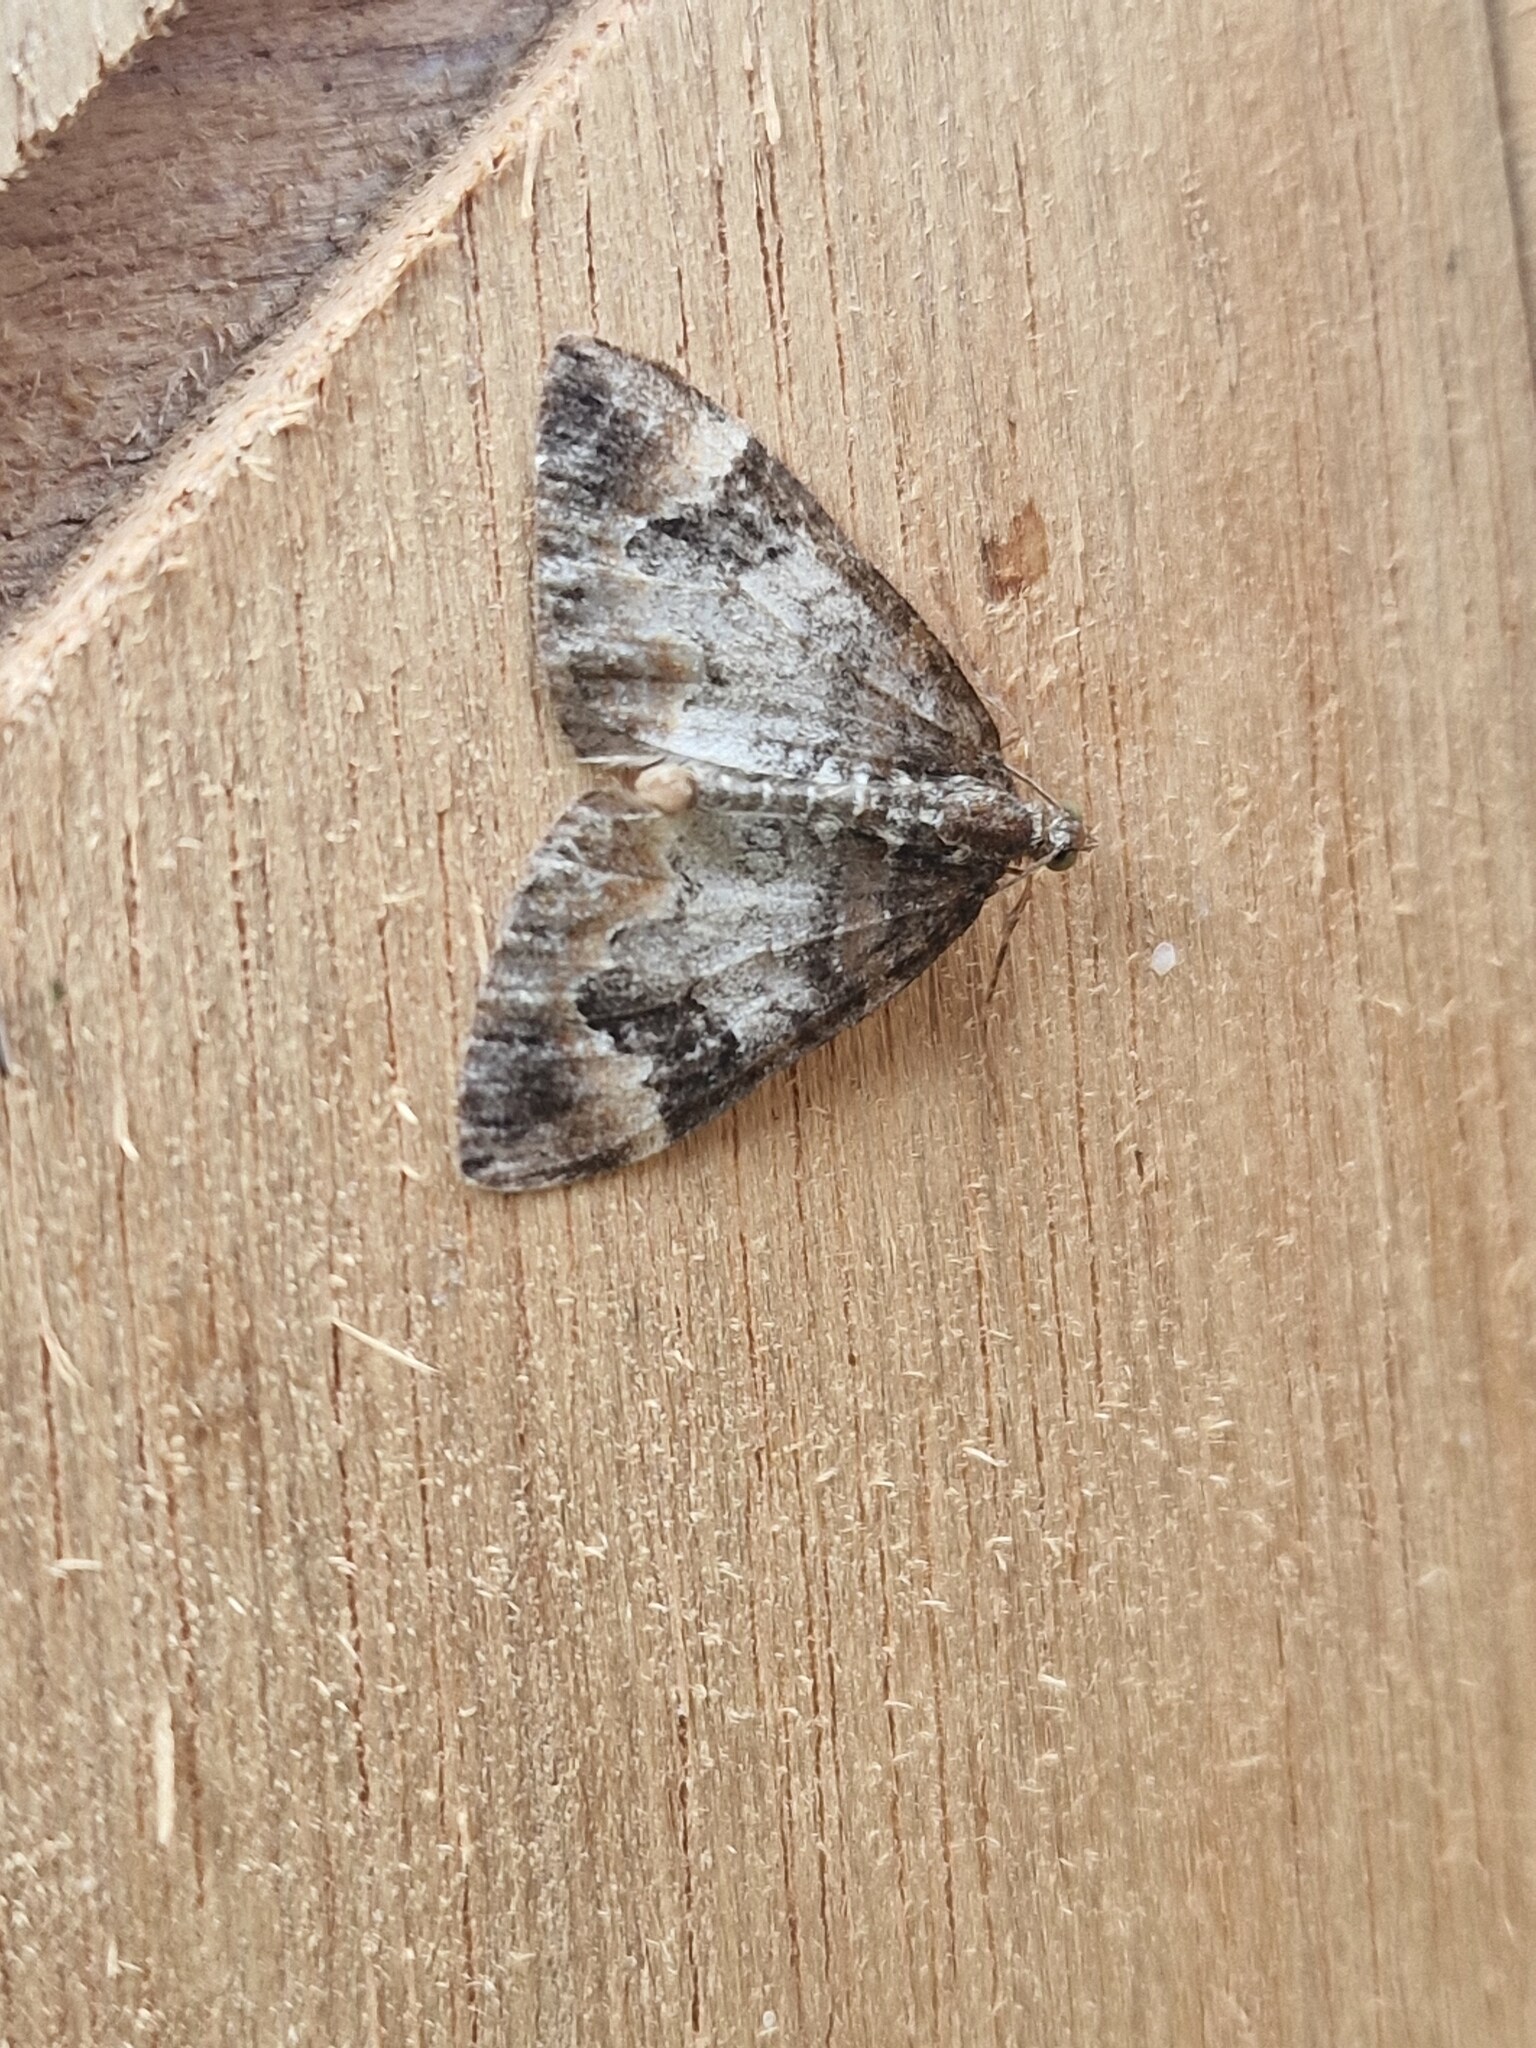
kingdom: Animalia
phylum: Arthropoda
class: Insecta
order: Lepidoptera
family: Geometridae
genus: Dysstroma
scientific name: Dysstroma truncata
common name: Common marbled carpet
